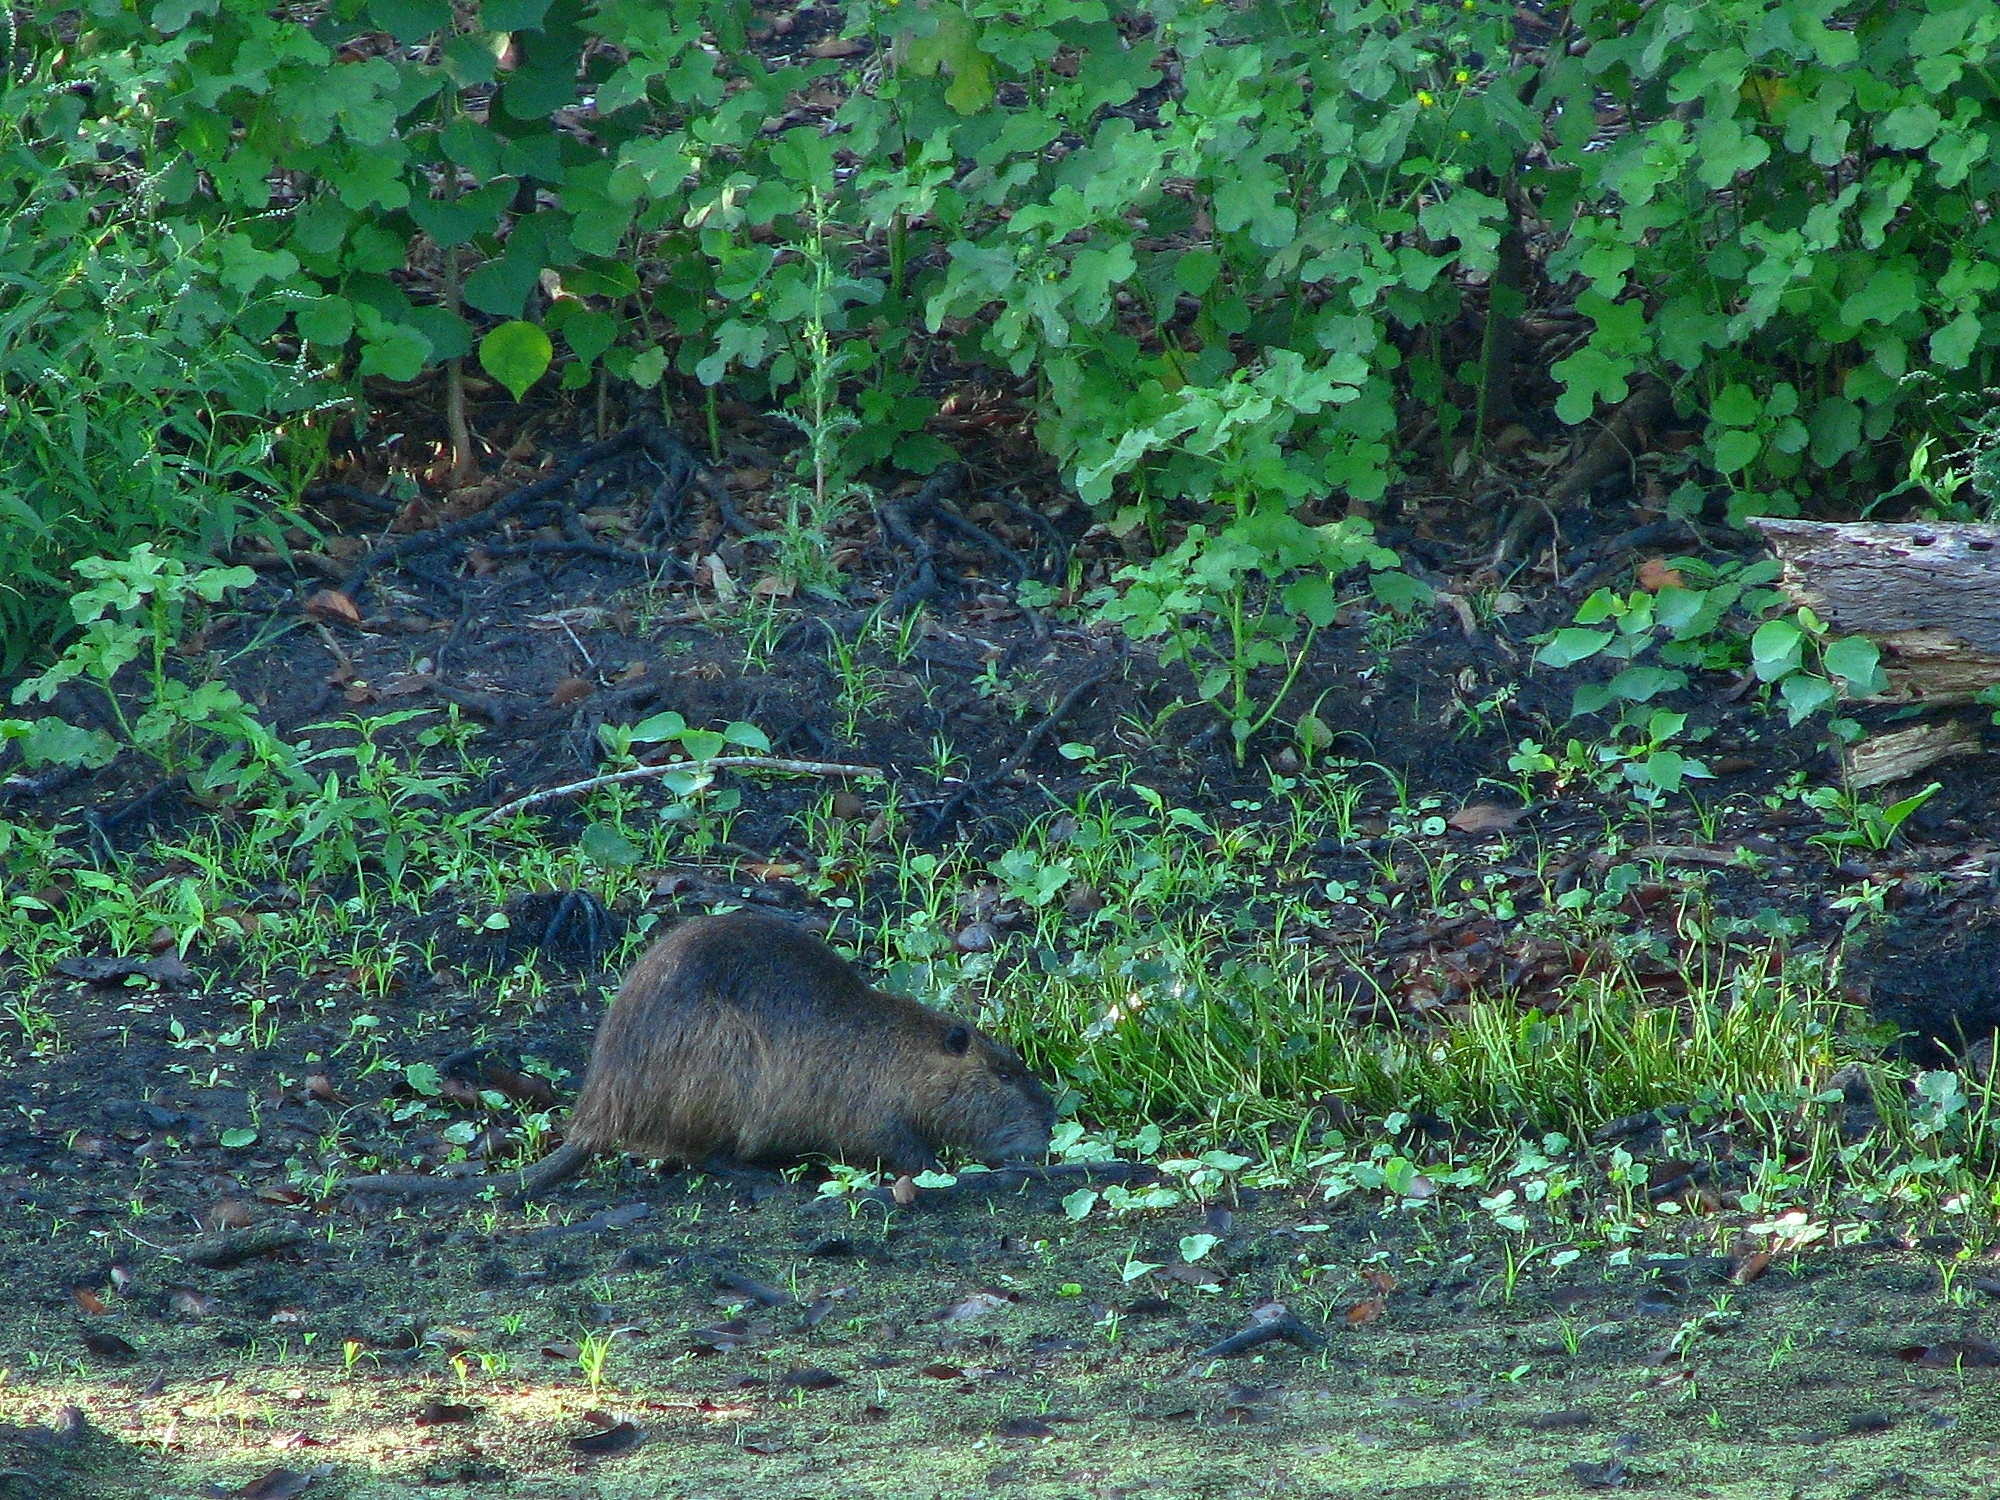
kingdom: Animalia
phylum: Chordata
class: Mammalia
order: Rodentia
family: Myocastoridae
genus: Myocastor
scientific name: Myocastor coypus
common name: Coypu
